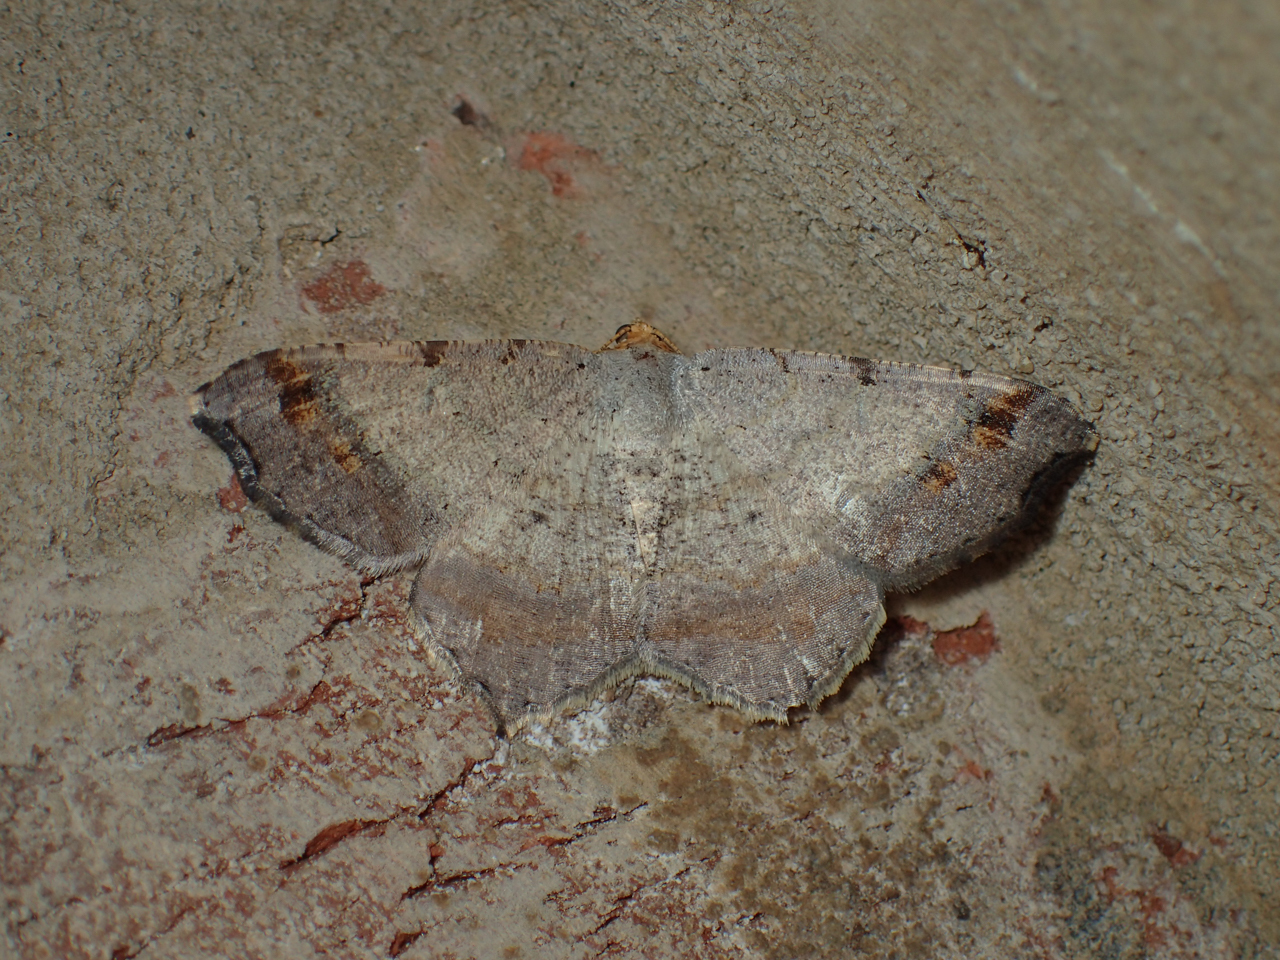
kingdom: Animalia
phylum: Arthropoda
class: Insecta
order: Lepidoptera
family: Geometridae
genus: Macaria
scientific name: Macaria transitaria
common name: Blurry chocolate angle
